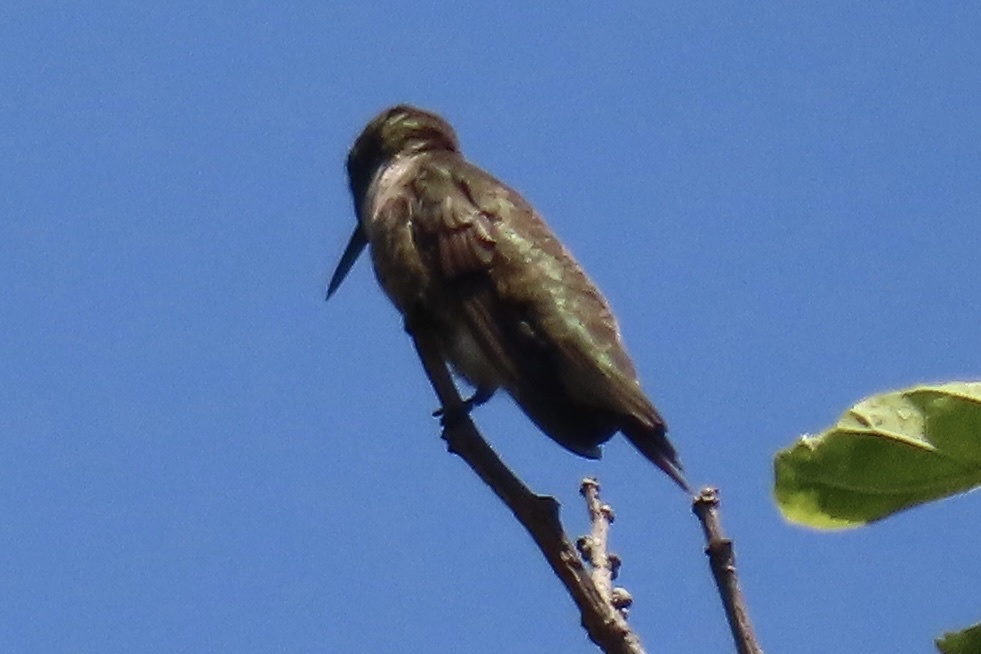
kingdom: Animalia
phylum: Chordata
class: Aves
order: Apodiformes
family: Trochilidae
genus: Archilochus
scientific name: Archilochus alexandri
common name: Black-chinned hummingbird
